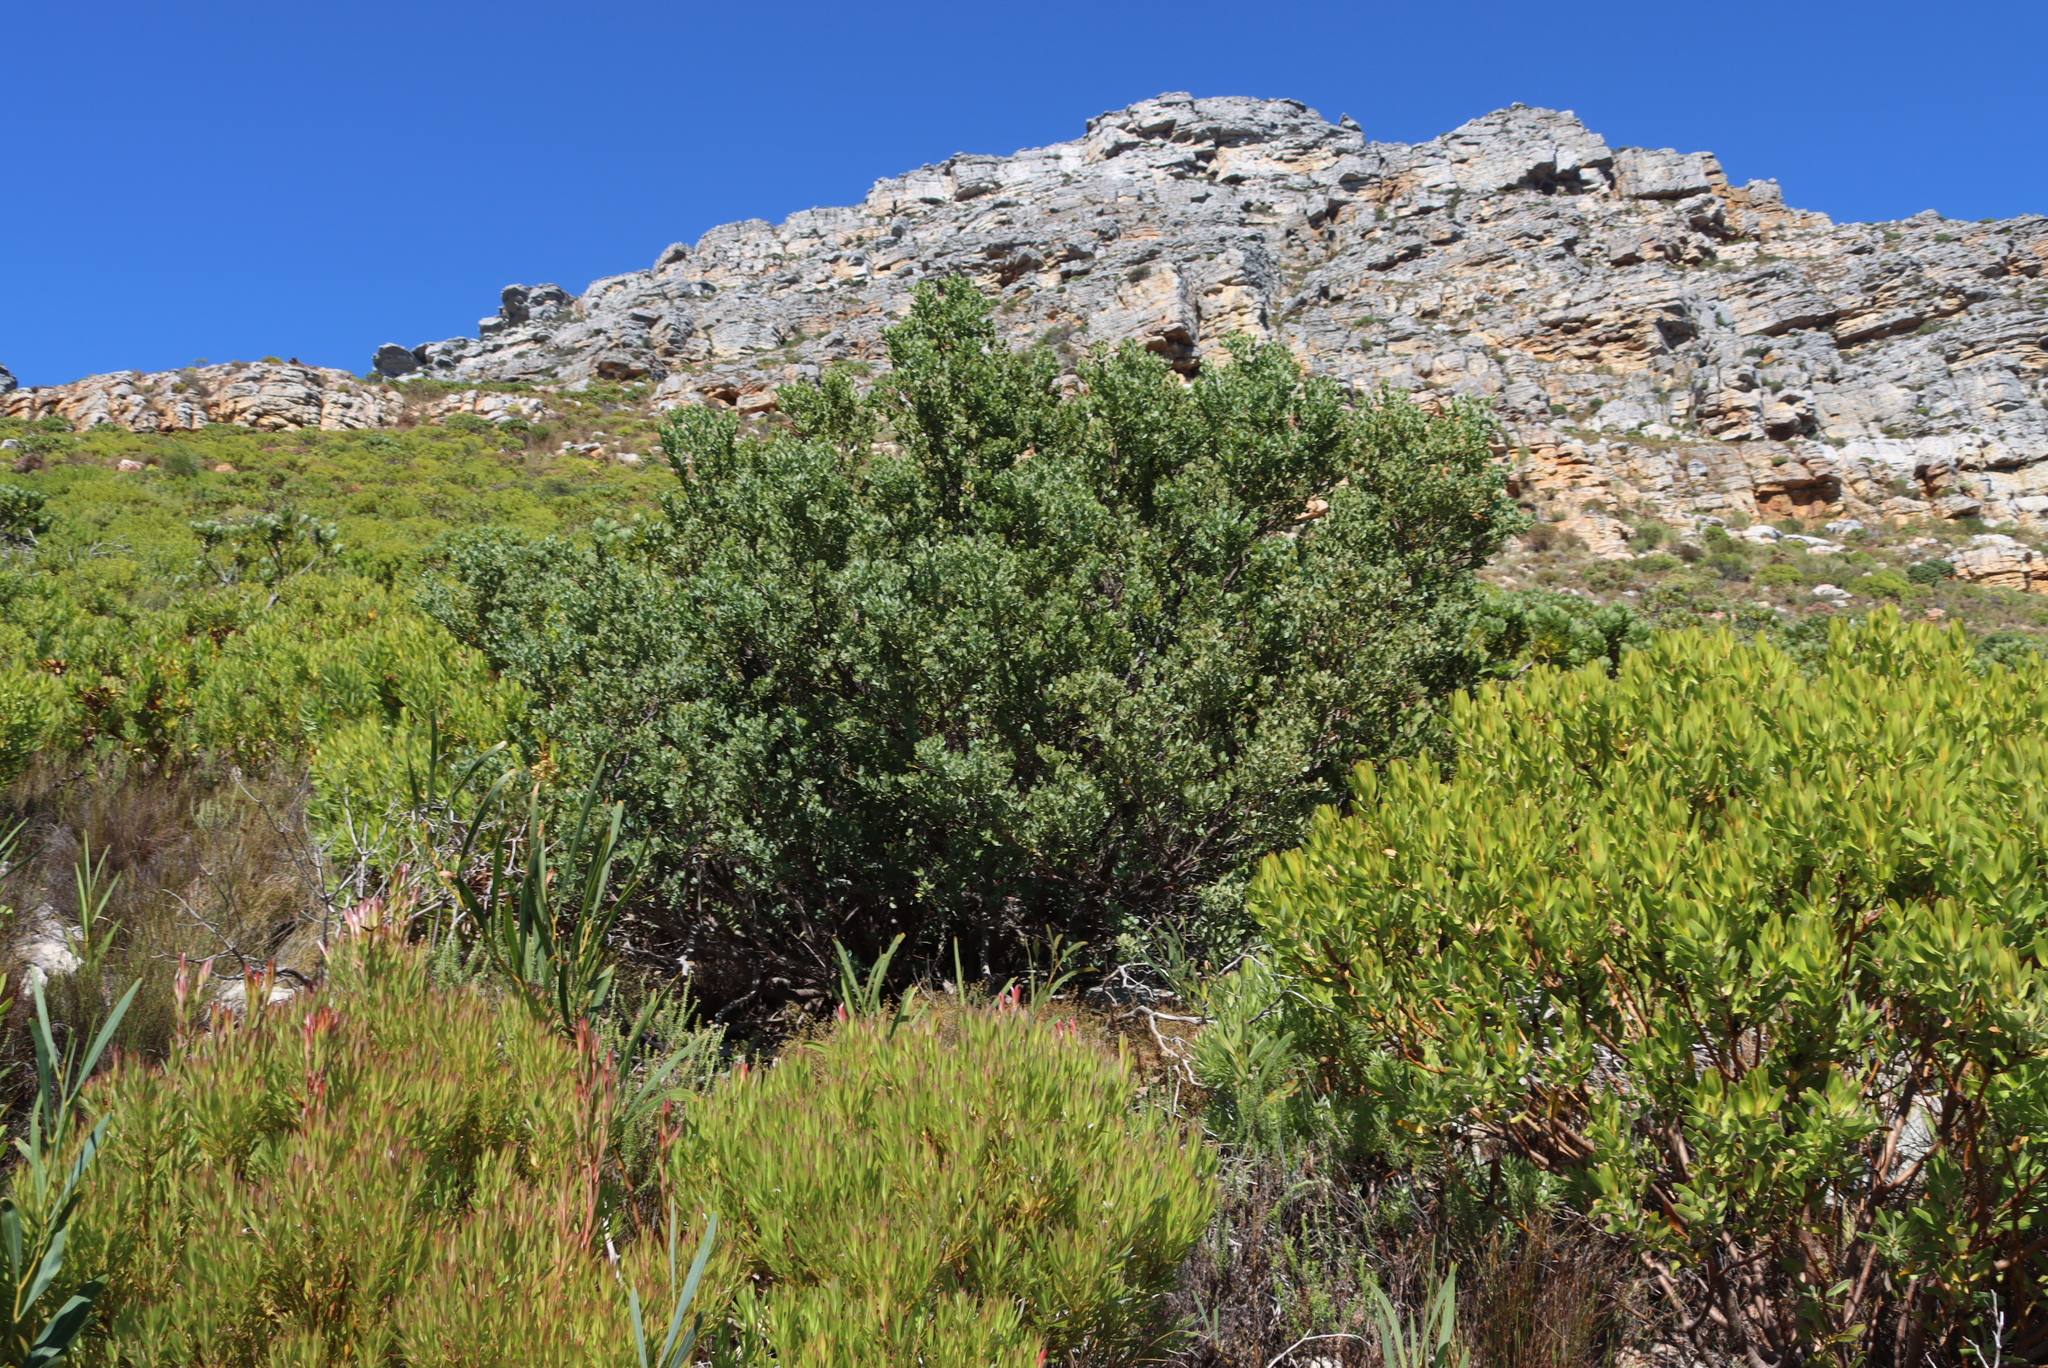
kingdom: Plantae
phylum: Tracheophyta
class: Magnoliopsida
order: Santalales
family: Santalaceae
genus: Osyris
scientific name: Osyris compressa
